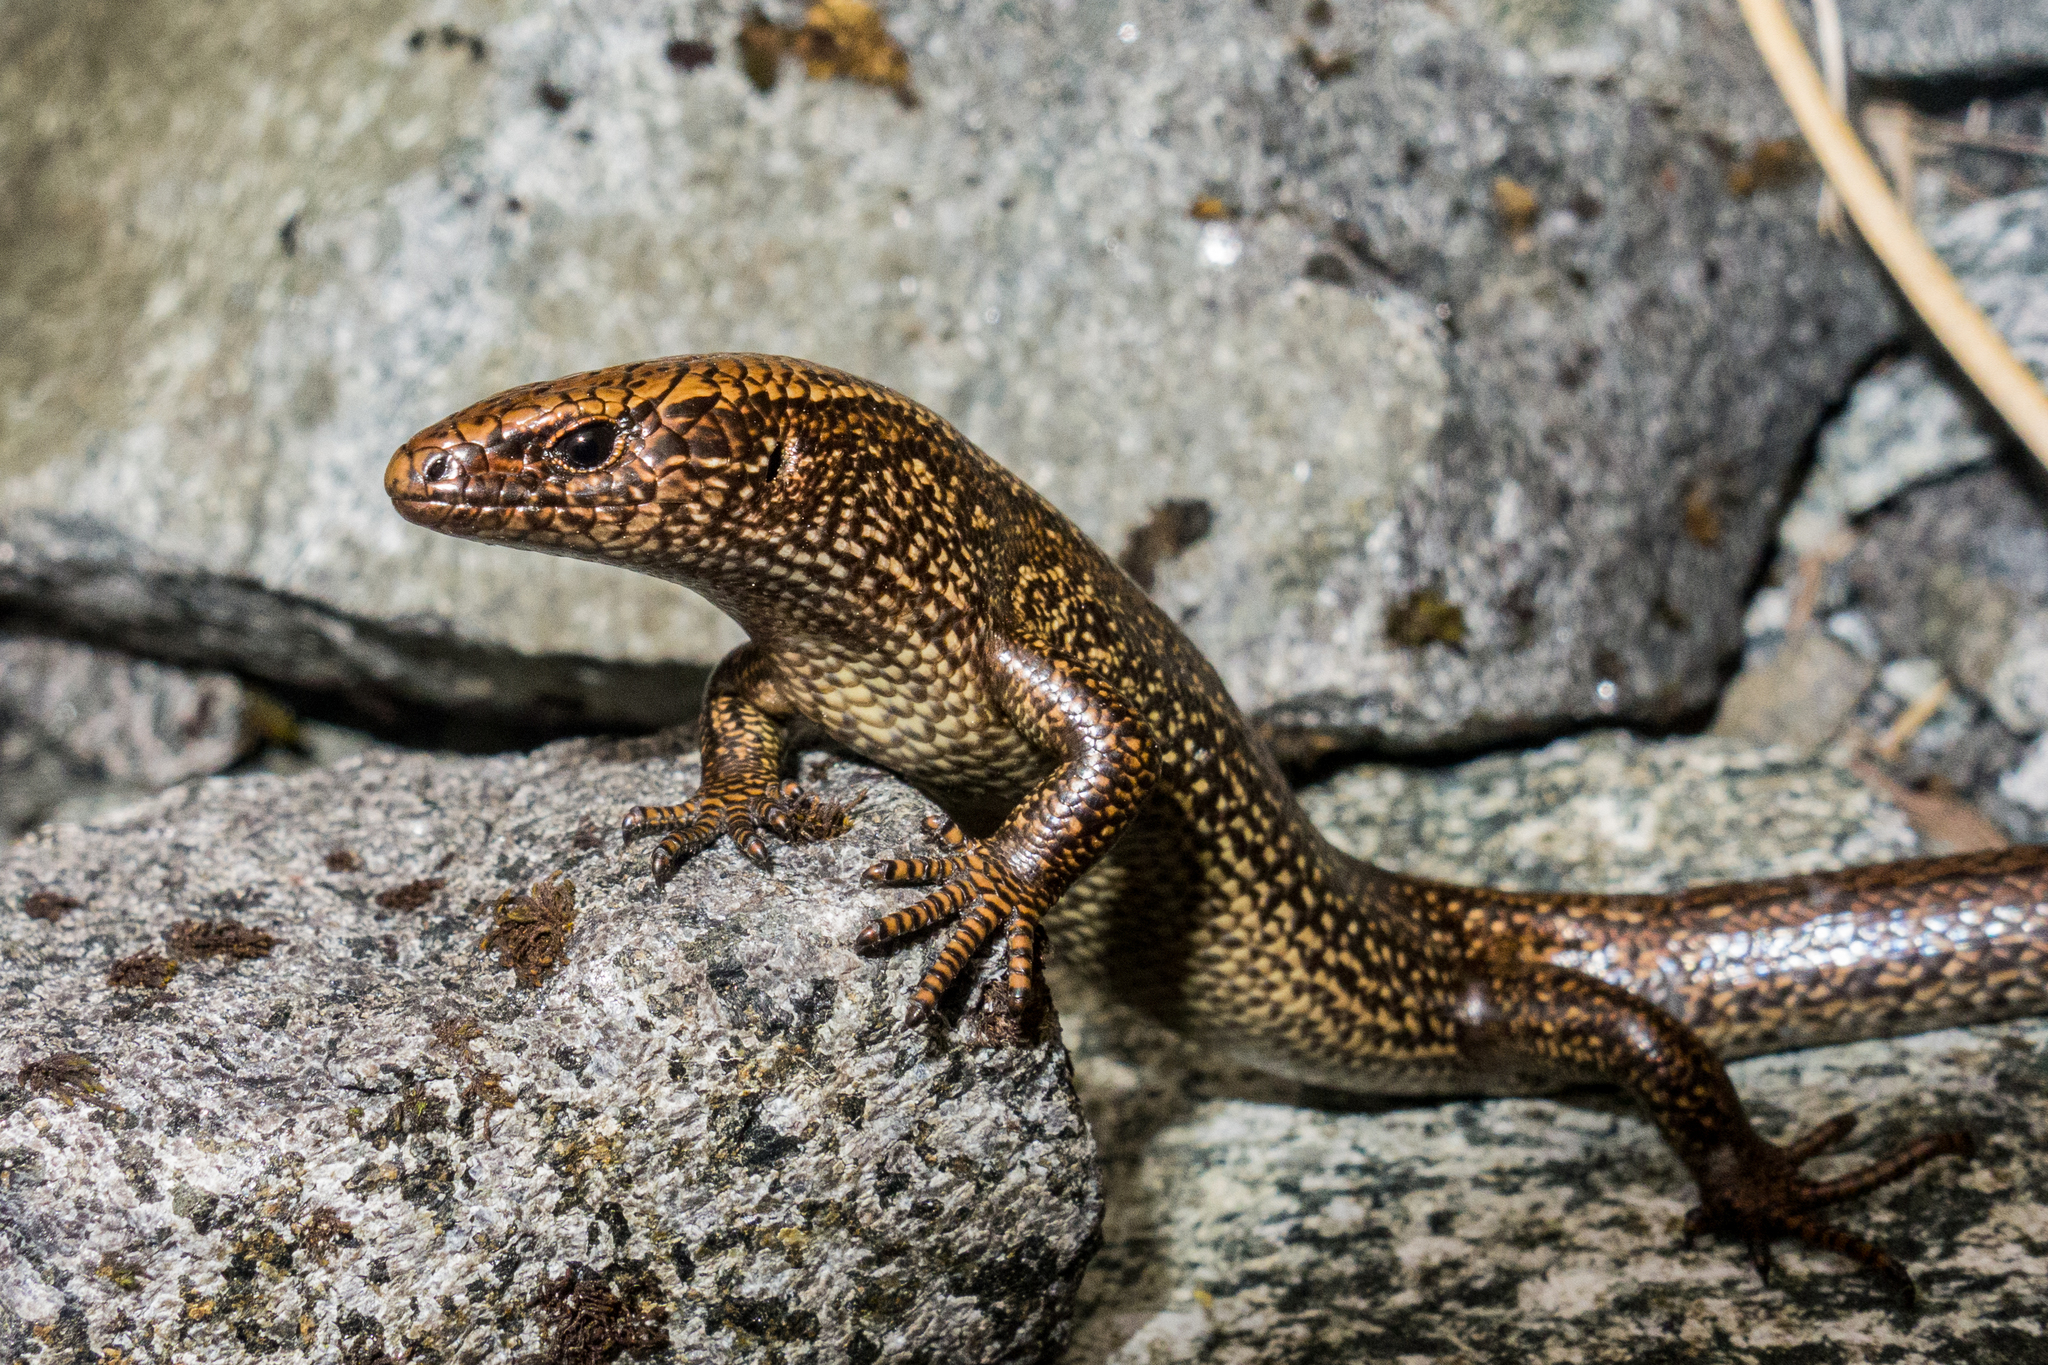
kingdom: Animalia
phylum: Chordata
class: Squamata
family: Scincidae
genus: Oligosoma
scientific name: Oligosoma awakopaka
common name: Awakopaka skink
